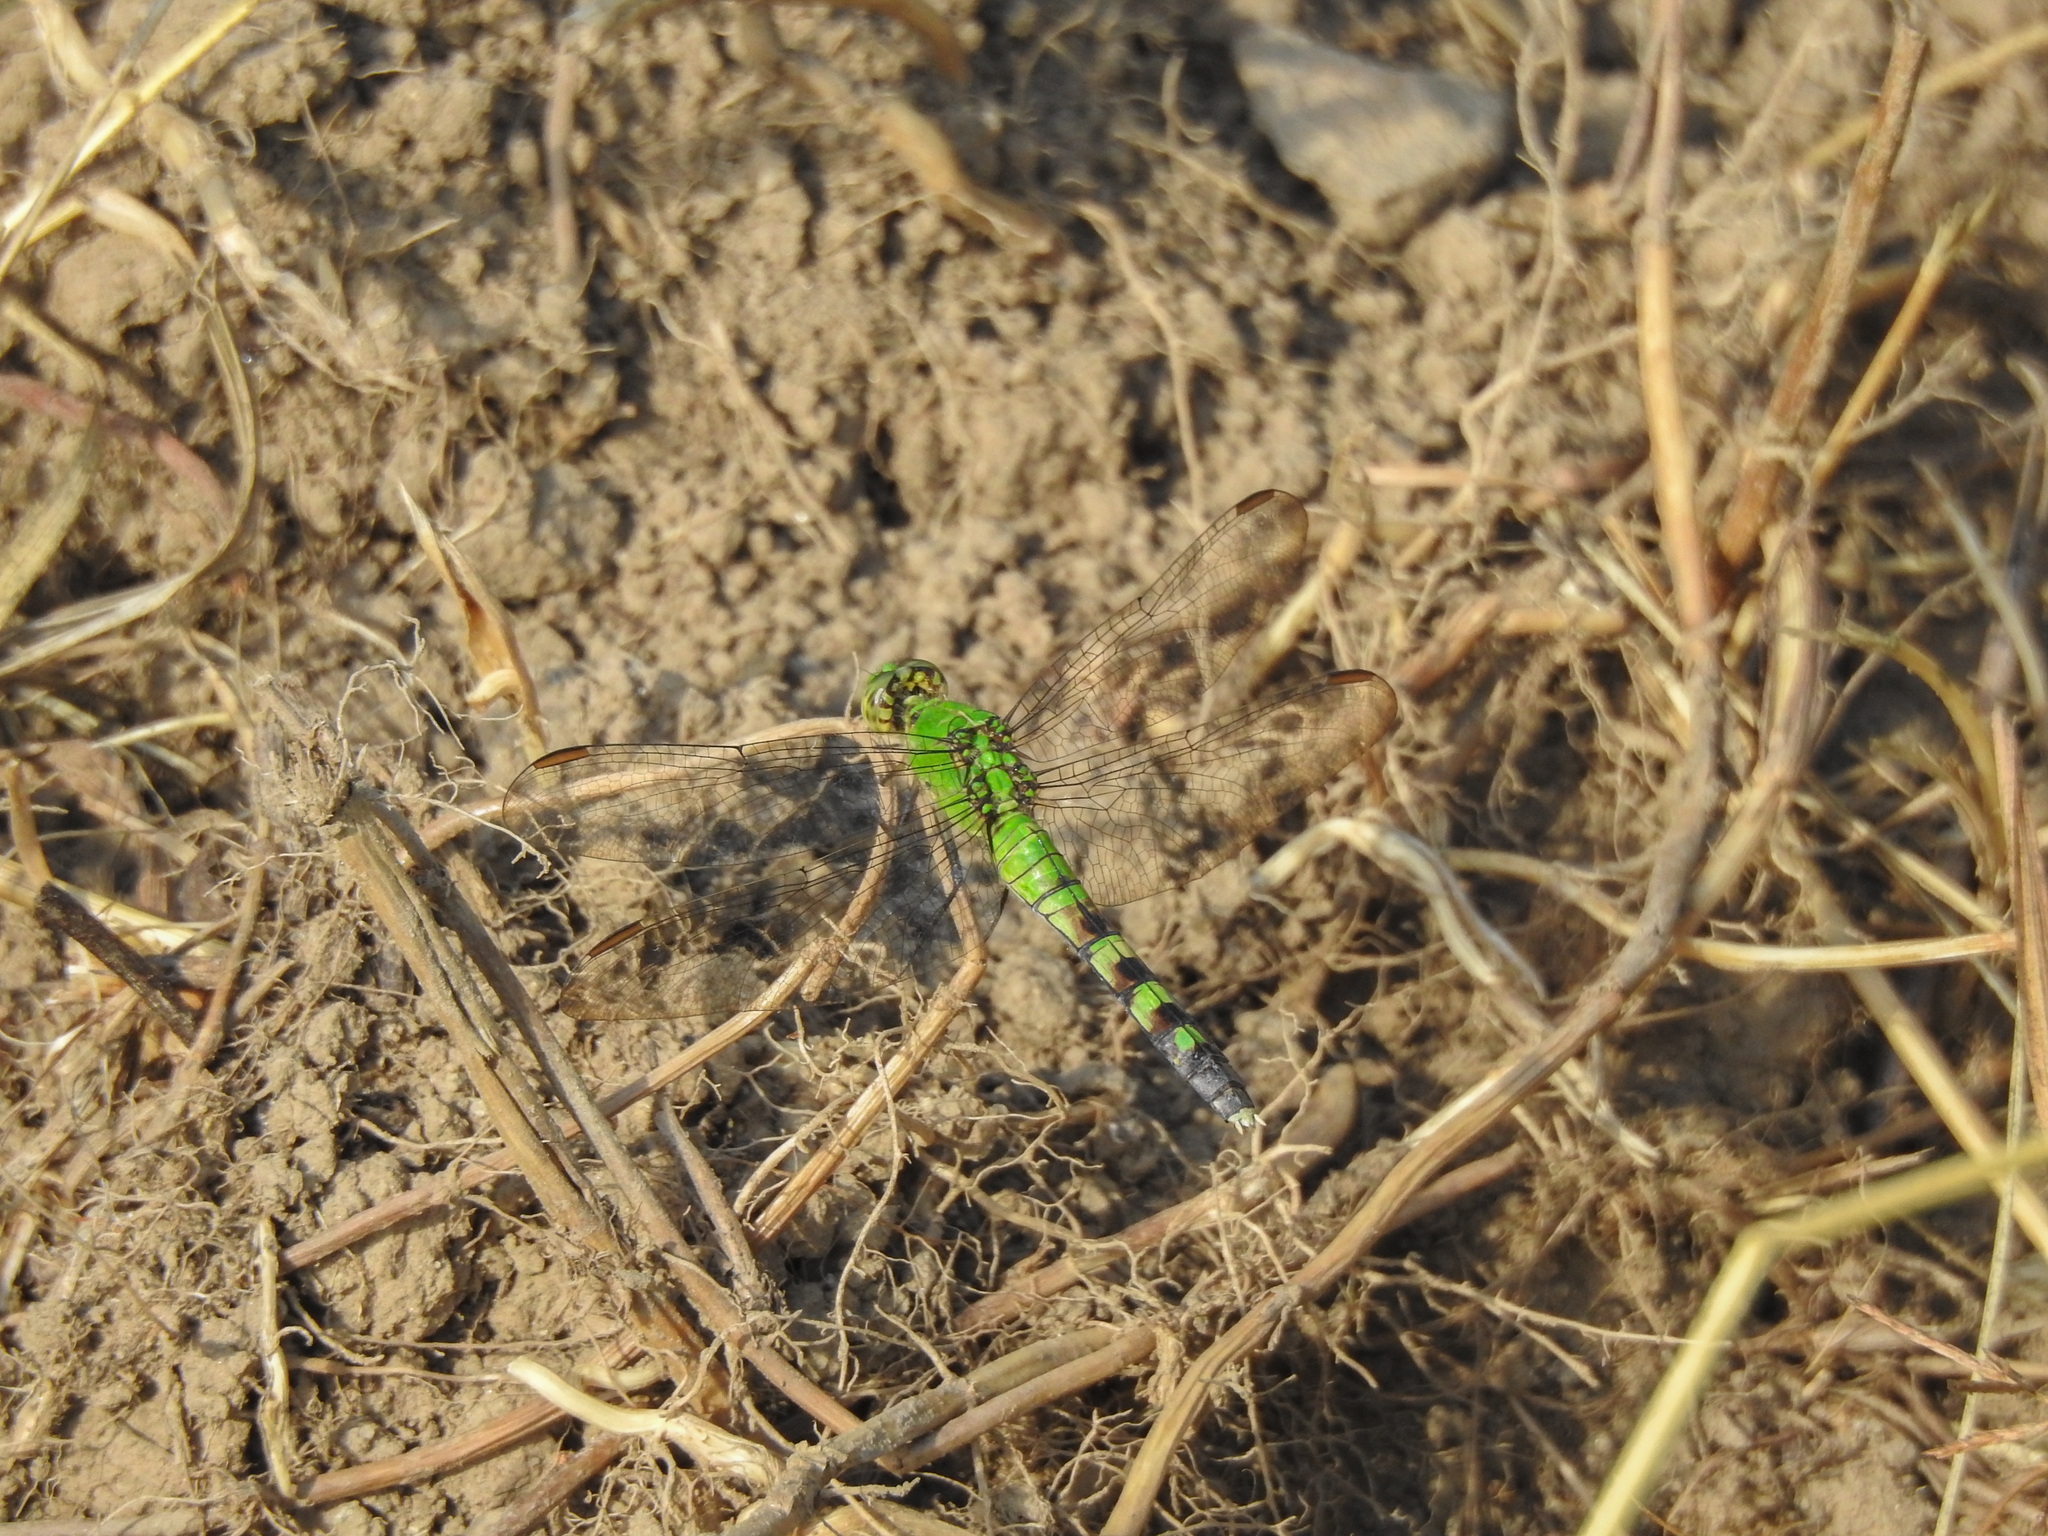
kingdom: Animalia
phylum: Arthropoda
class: Insecta
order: Odonata
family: Libellulidae
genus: Erythemis
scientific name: Erythemis simplicicollis
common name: Eastern pondhawk
